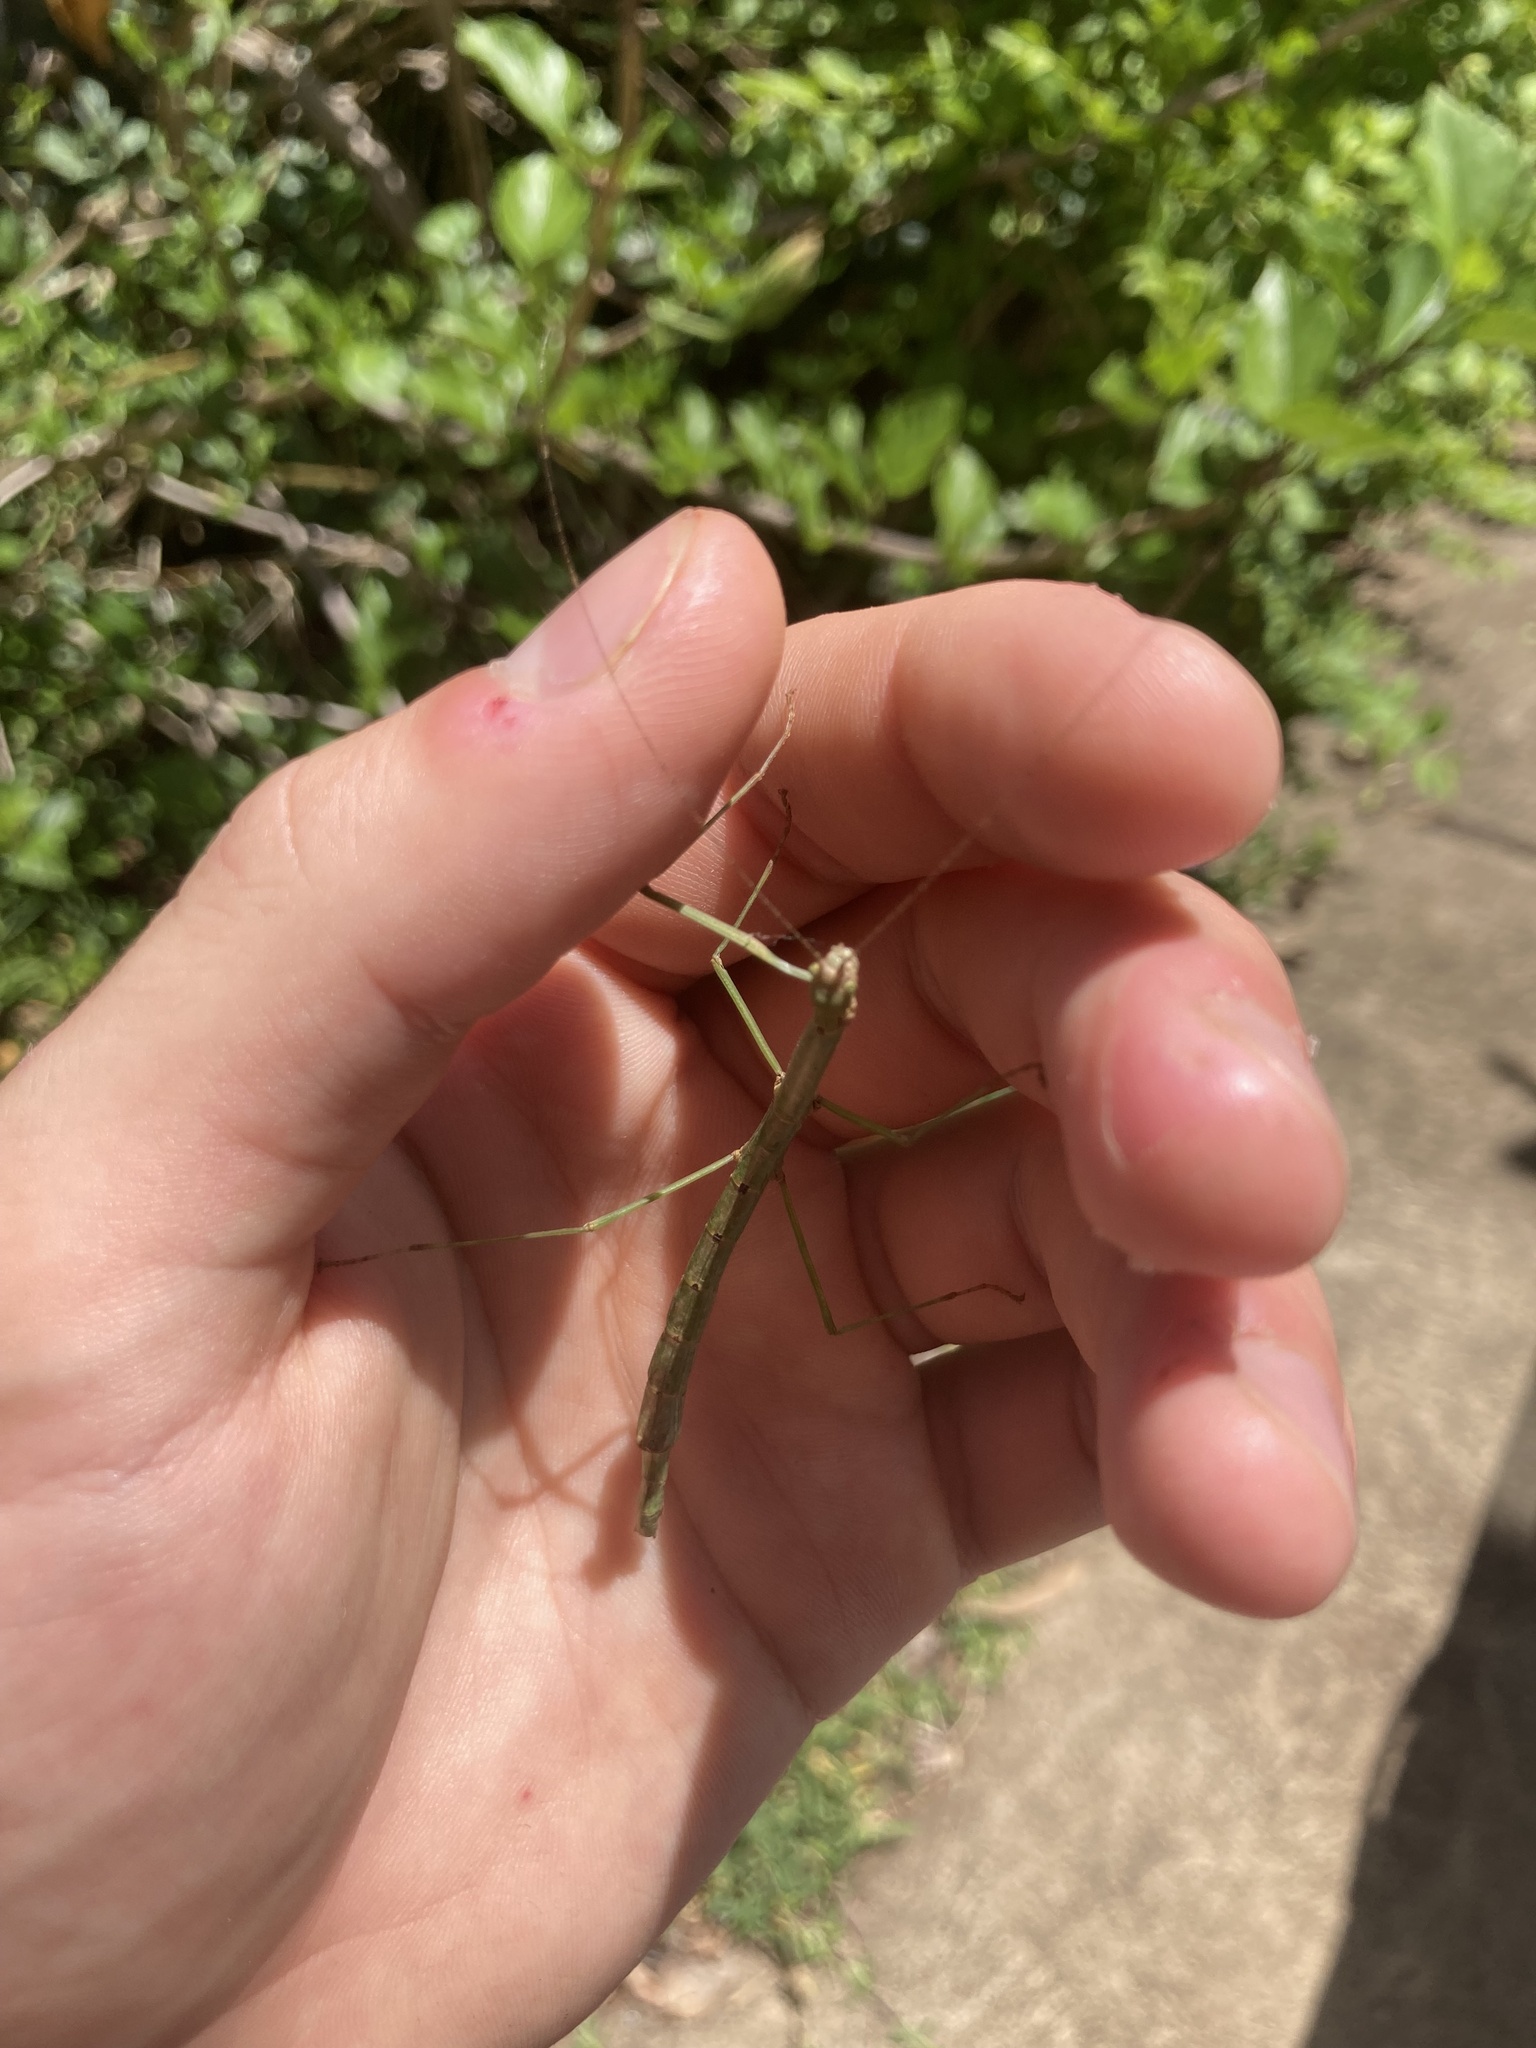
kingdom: Animalia
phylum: Arthropoda
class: Insecta
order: Phasmida
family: Lonchodidae
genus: Candovia
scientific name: Candovia strumosa
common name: Richmond river stick-insect
